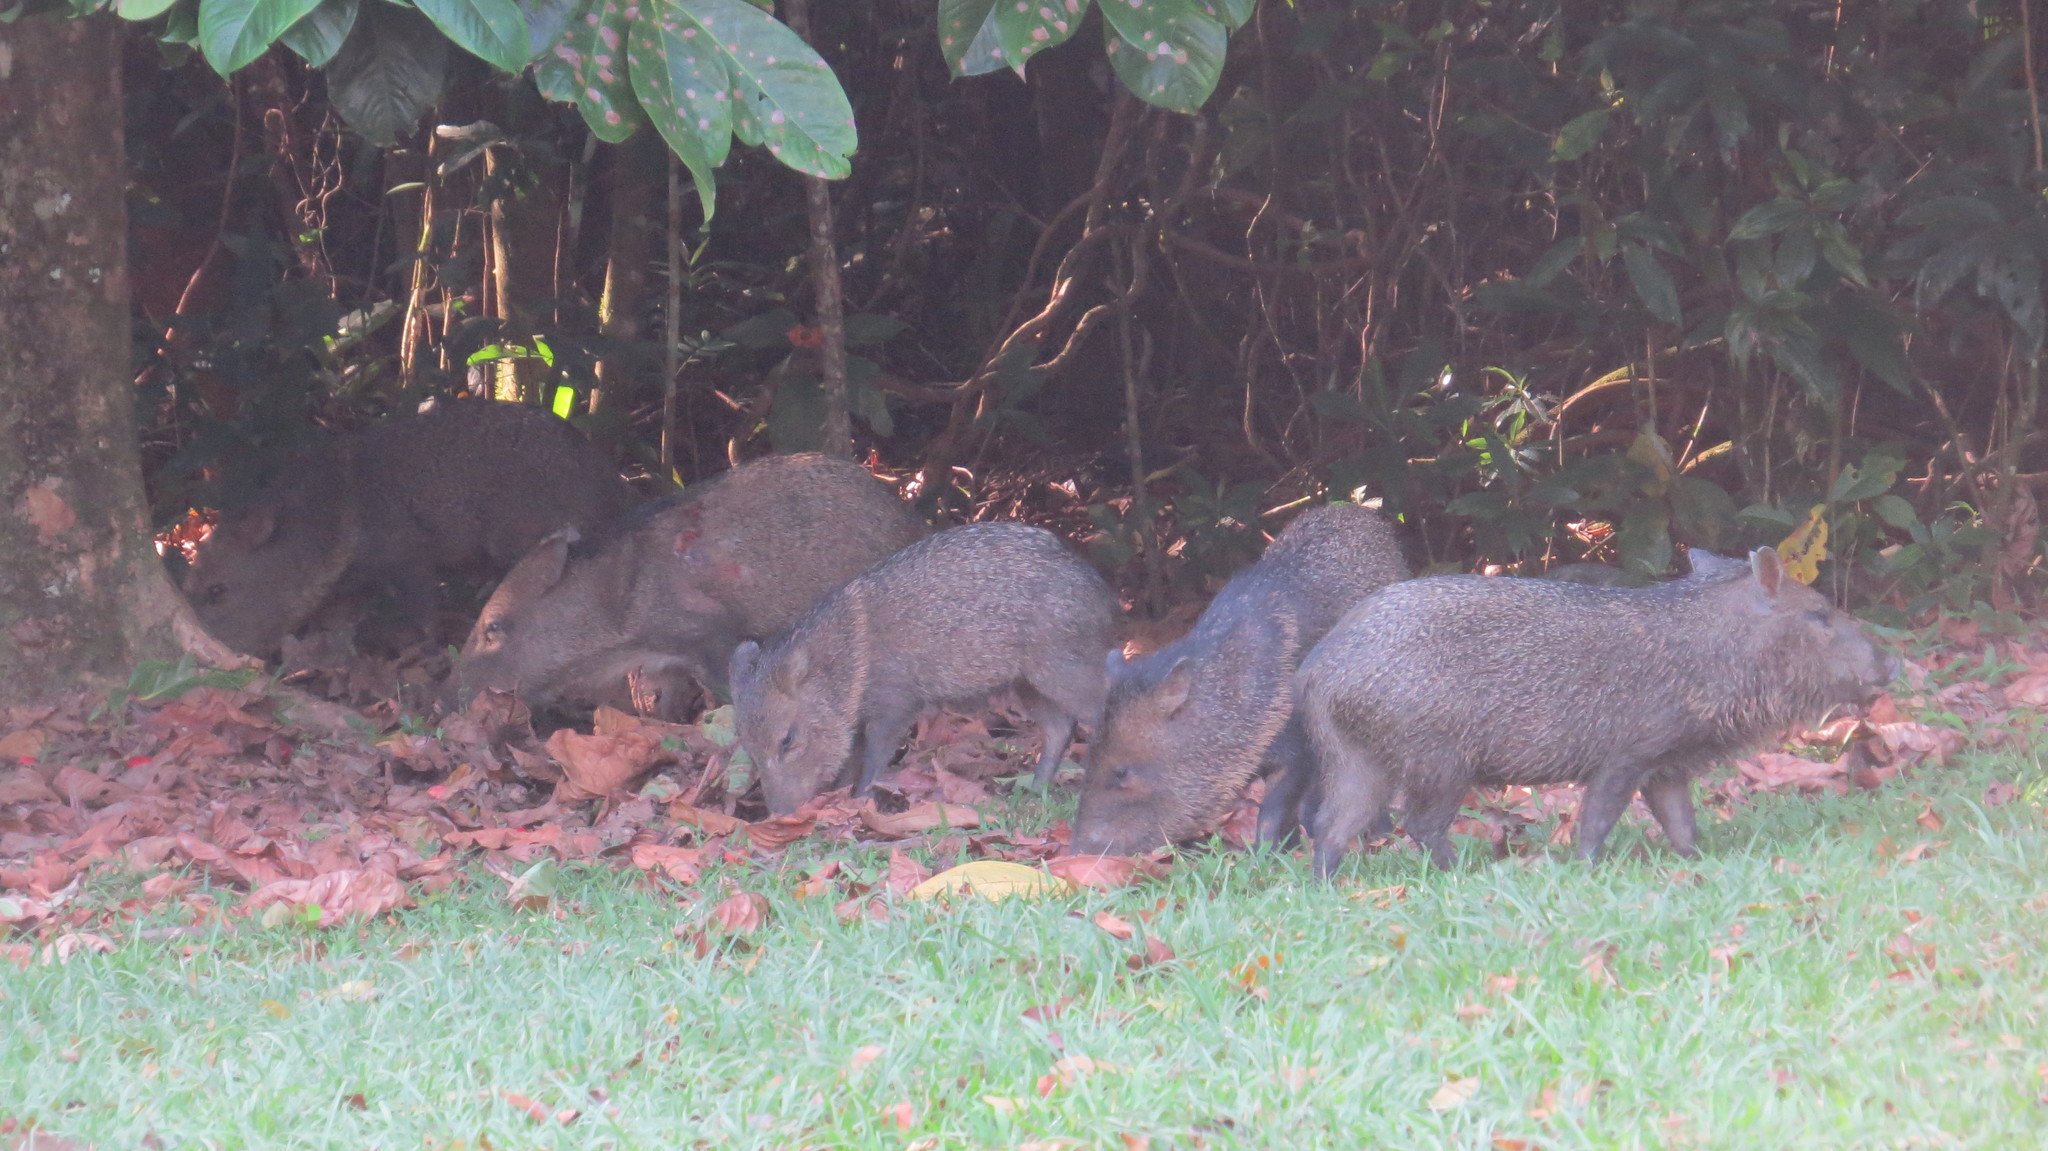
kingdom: Animalia
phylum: Chordata
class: Mammalia
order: Artiodactyla
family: Tayassuidae
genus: Pecari
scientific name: Pecari tajacu
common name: Collared peccary
